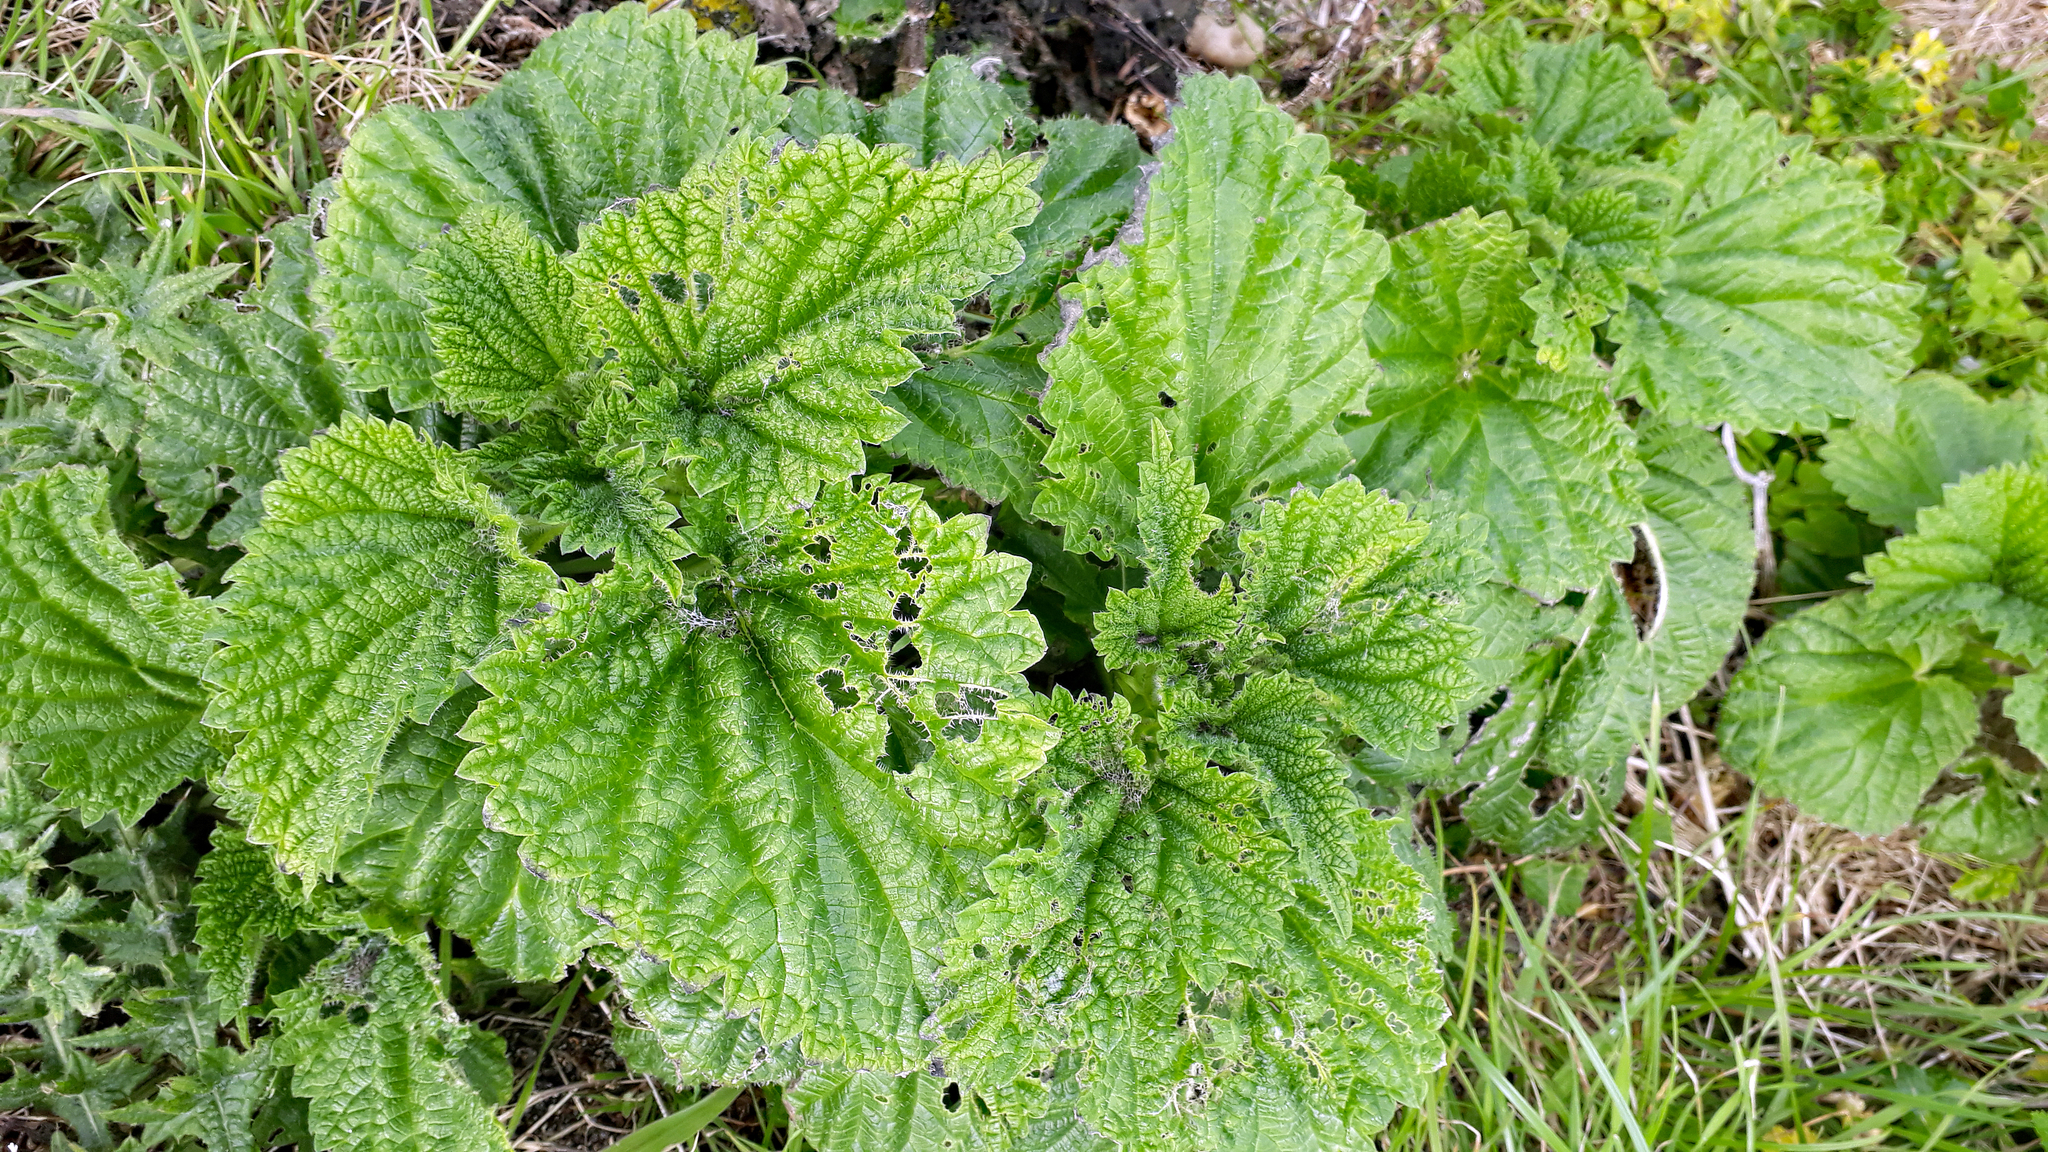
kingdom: Plantae
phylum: Tracheophyta
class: Magnoliopsida
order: Rosales
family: Urticaceae
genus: Urtica
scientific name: Urtica australis
